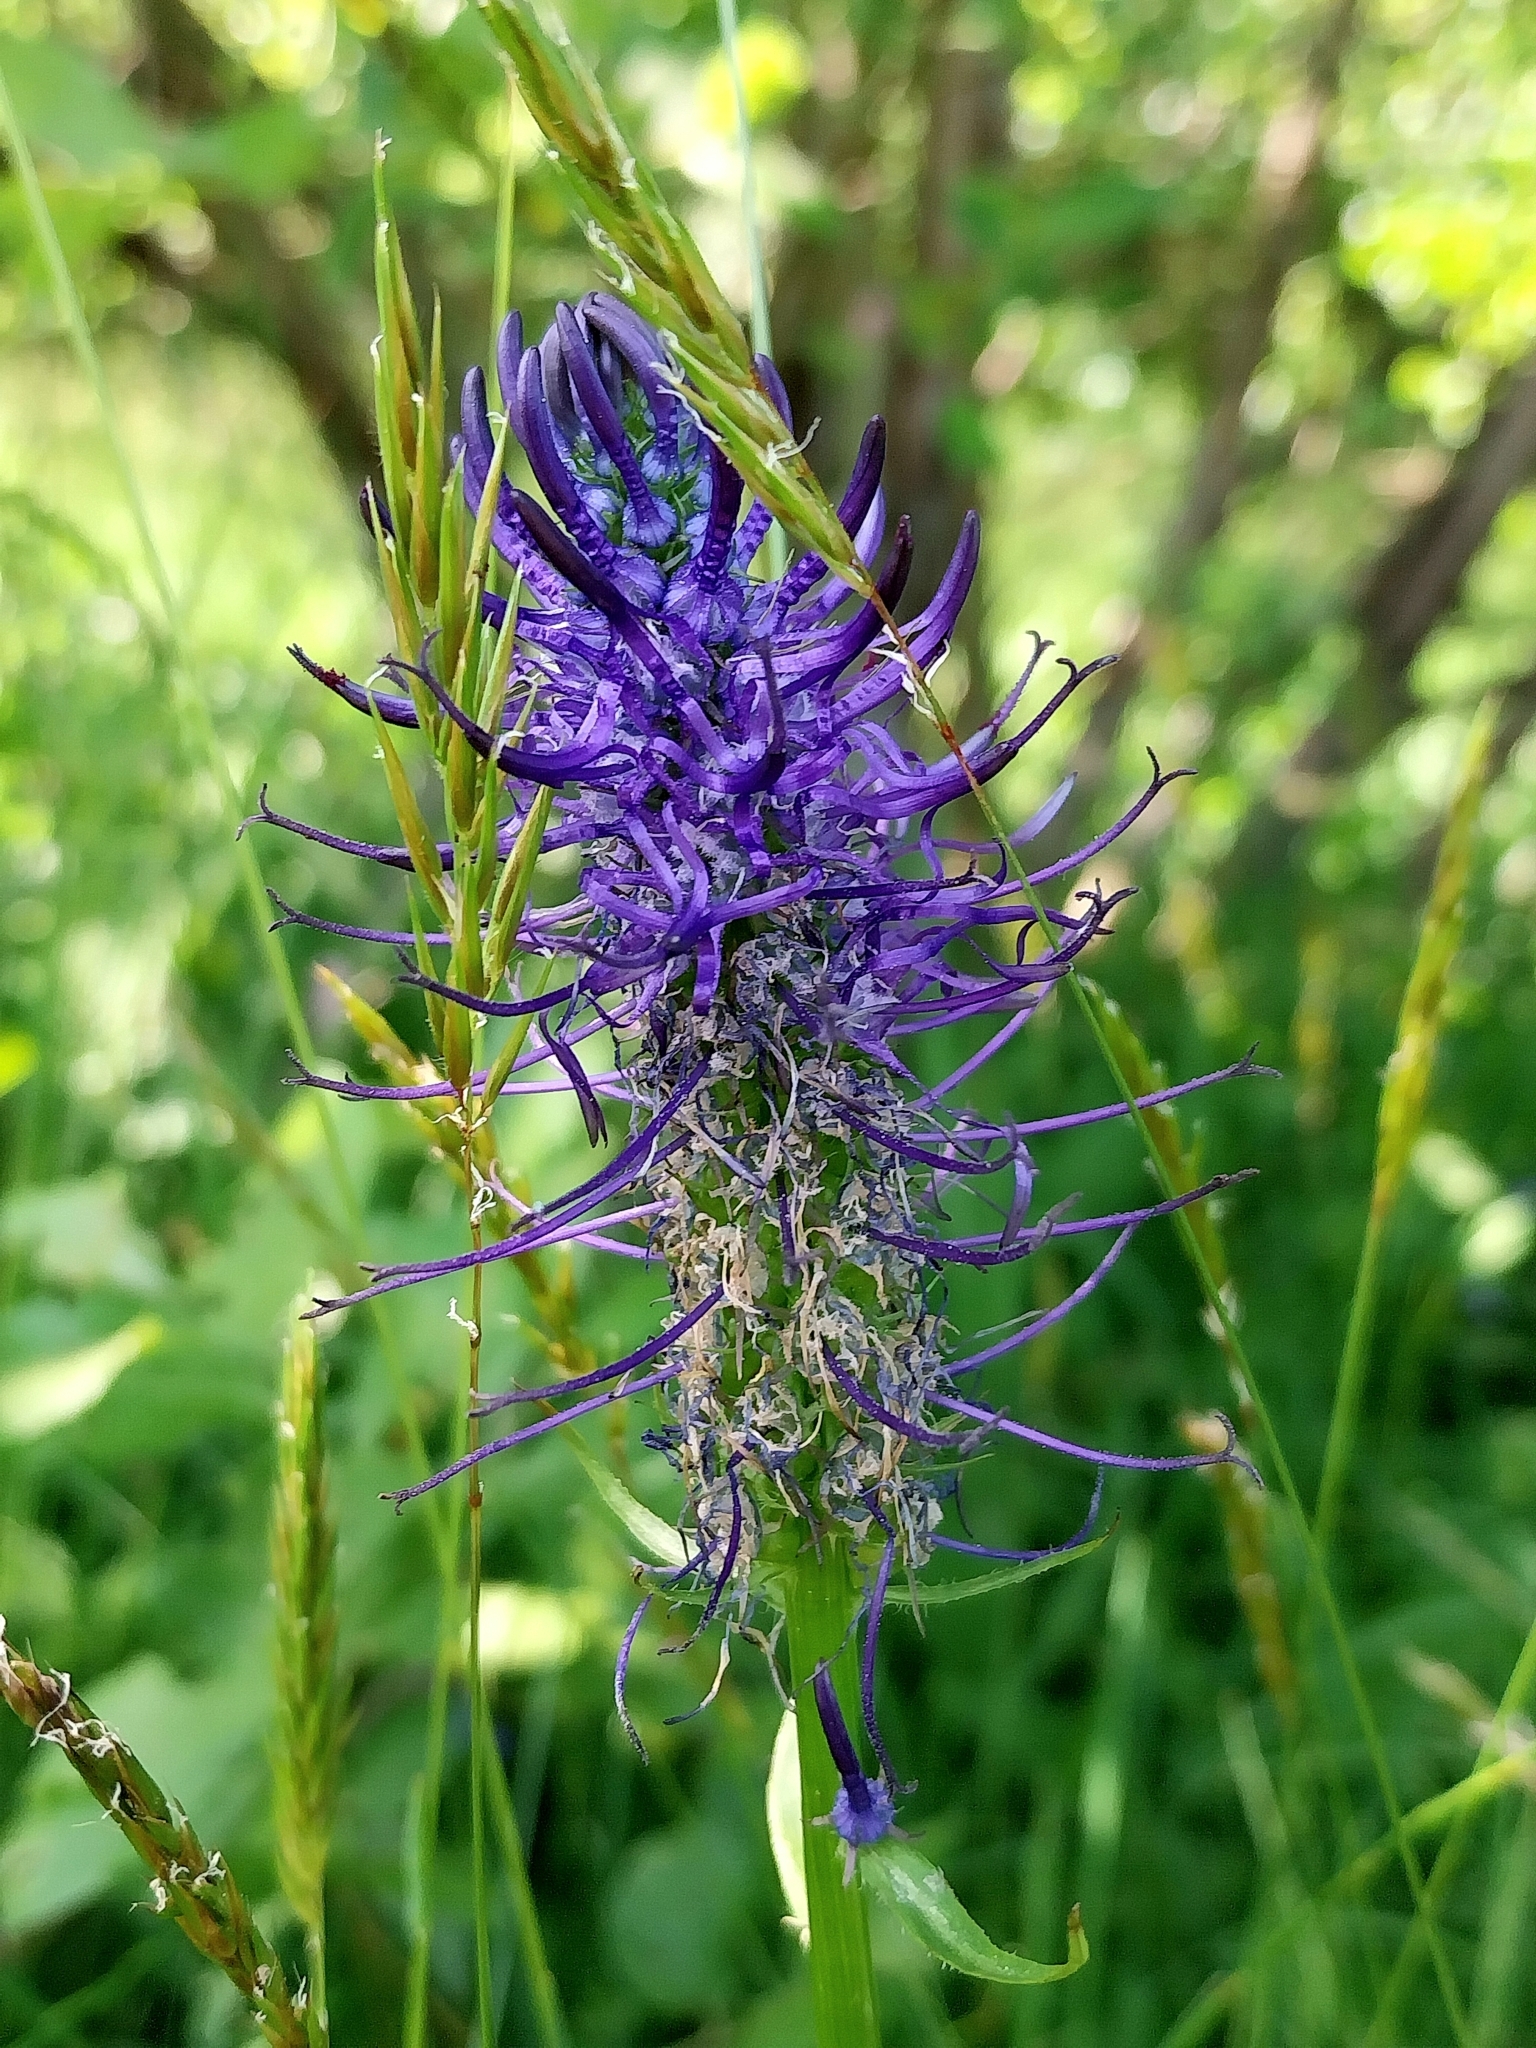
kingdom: Plantae
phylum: Tracheophyta
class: Magnoliopsida
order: Asterales
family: Campanulaceae
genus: Phyteuma
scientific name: Phyteuma nigrum
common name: Black rampion
